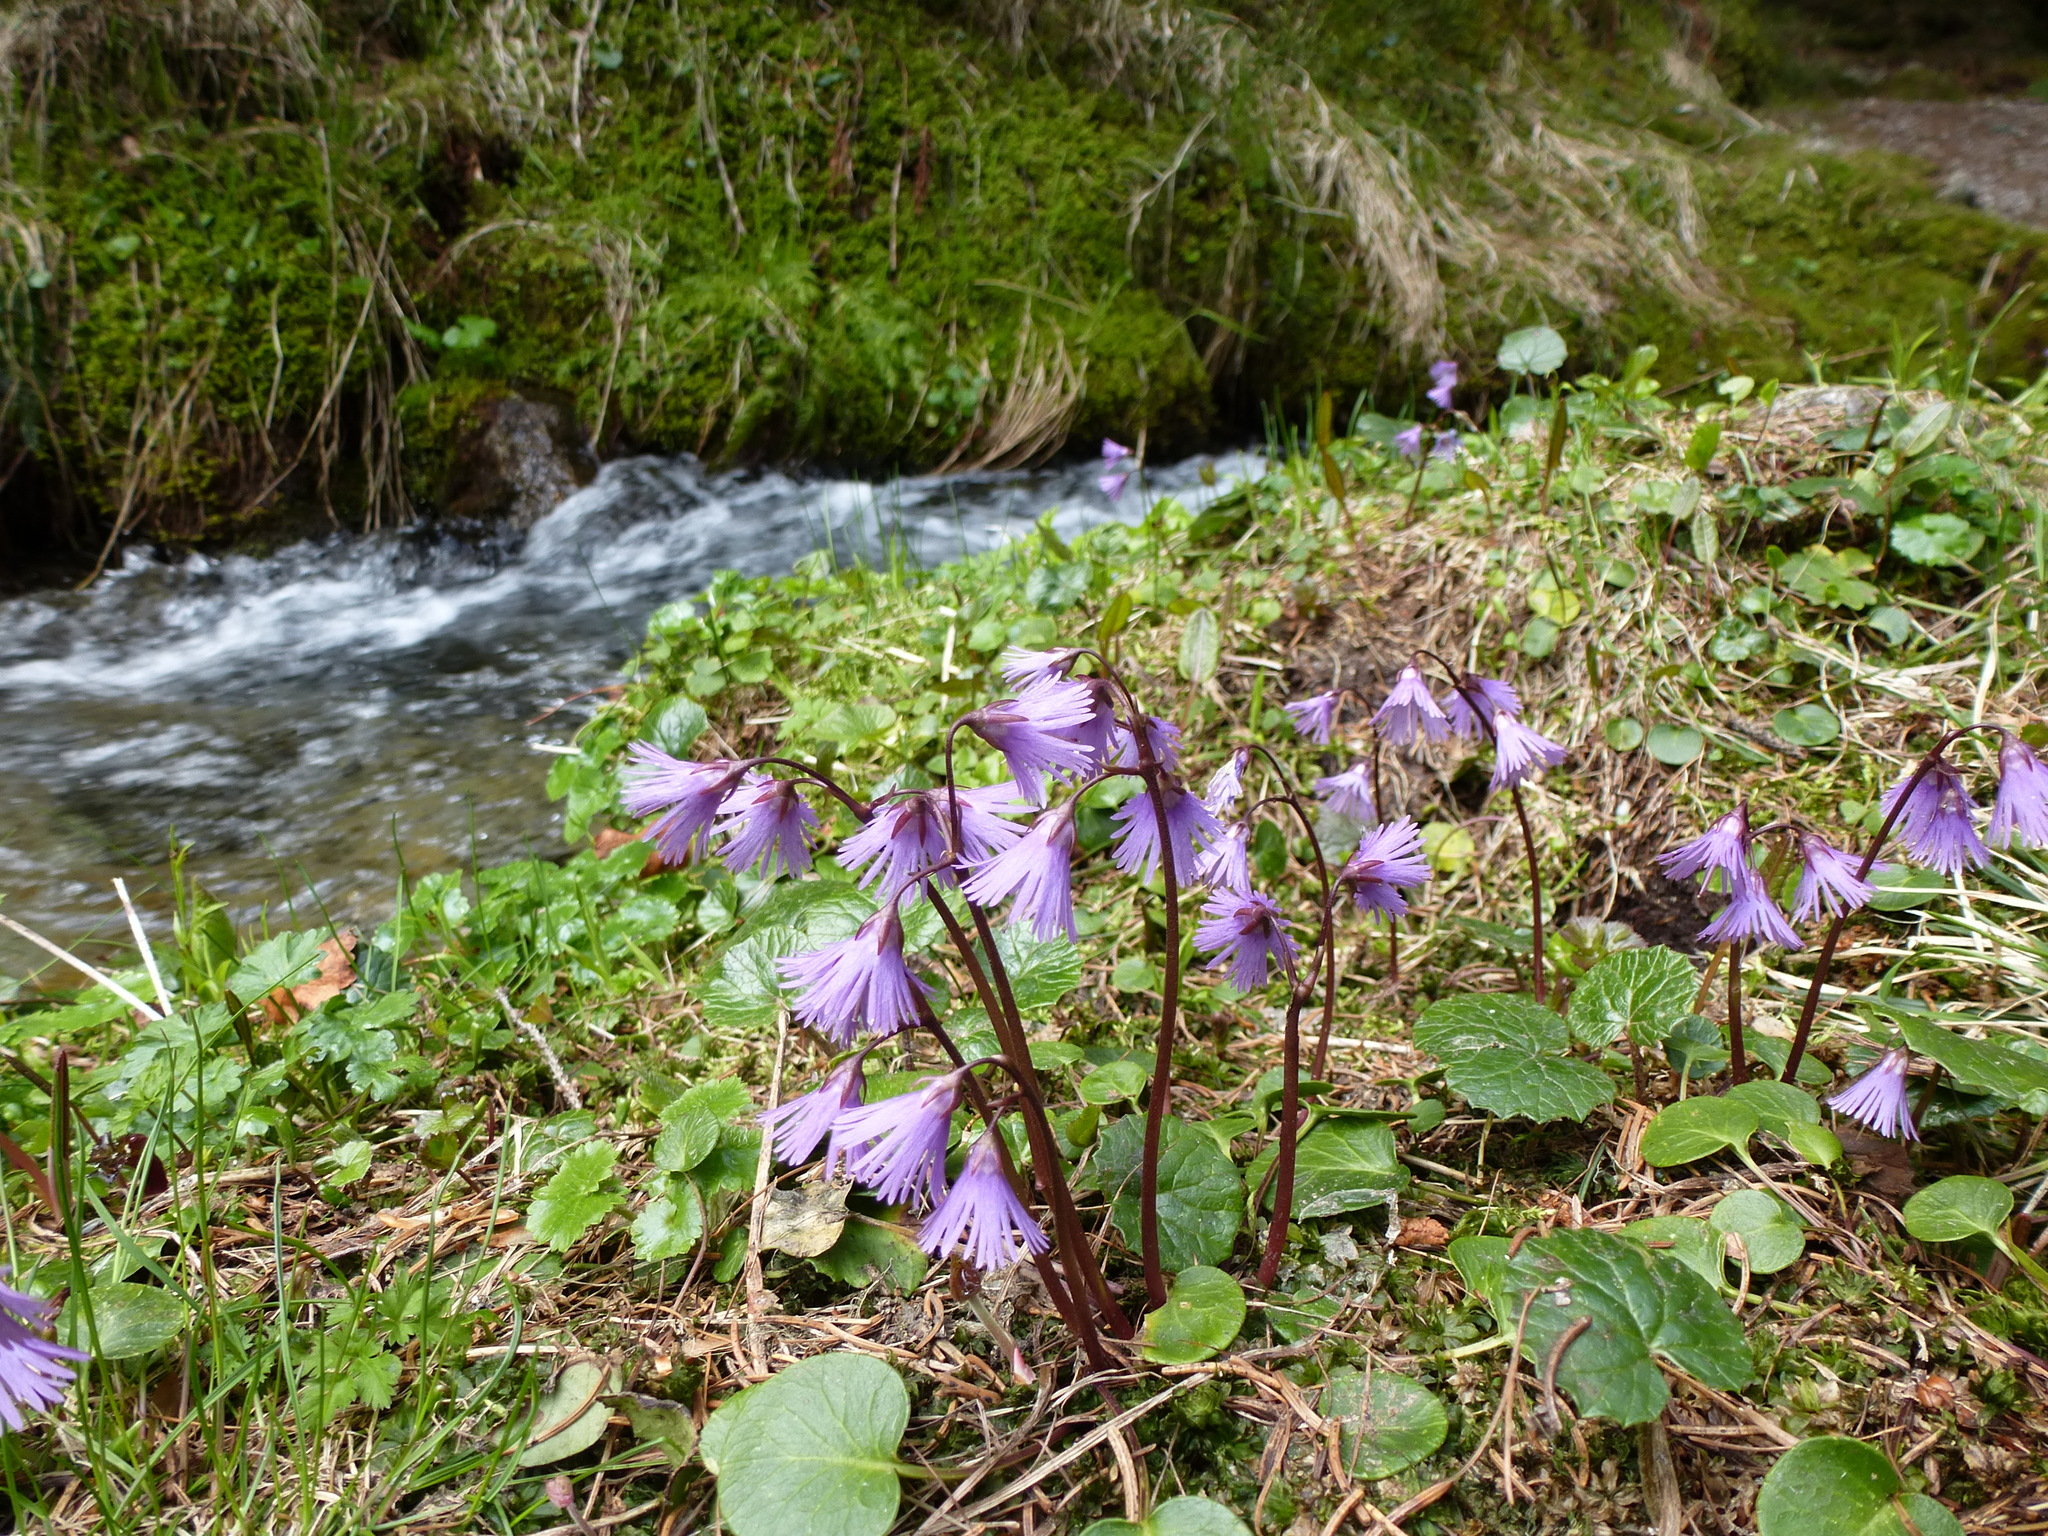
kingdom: Plantae
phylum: Tracheophyta
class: Magnoliopsida
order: Ericales
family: Primulaceae
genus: Soldanella
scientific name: Soldanella alpina
